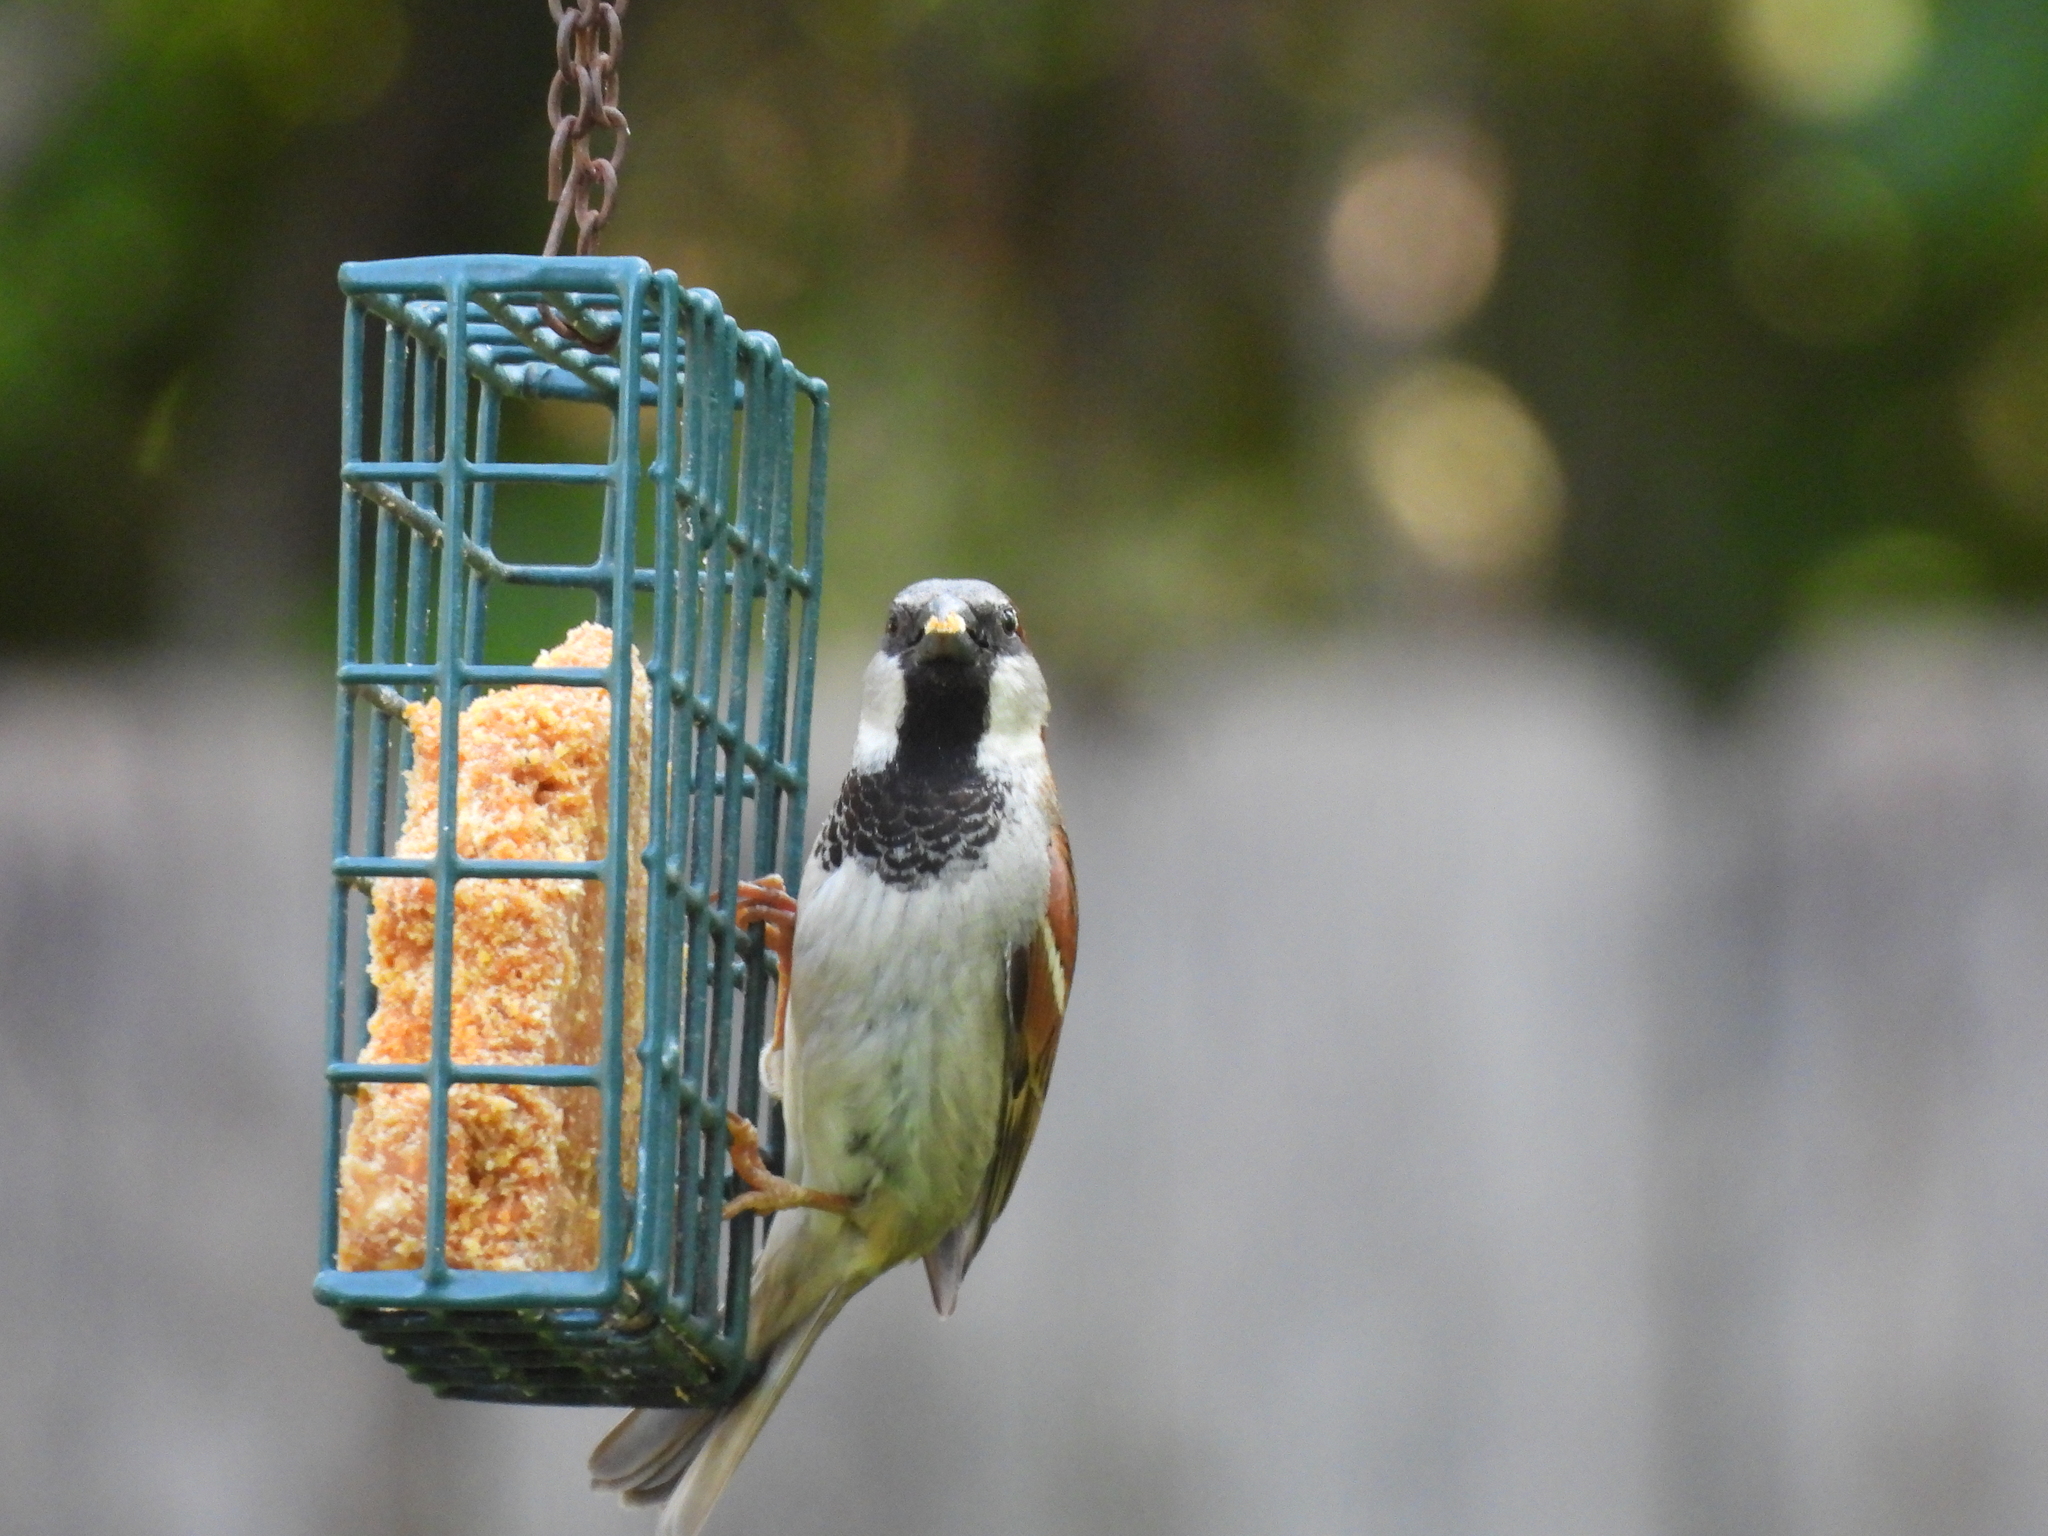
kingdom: Animalia
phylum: Chordata
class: Aves
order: Passeriformes
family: Passeridae
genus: Passer
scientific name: Passer domesticus
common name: House sparrow
